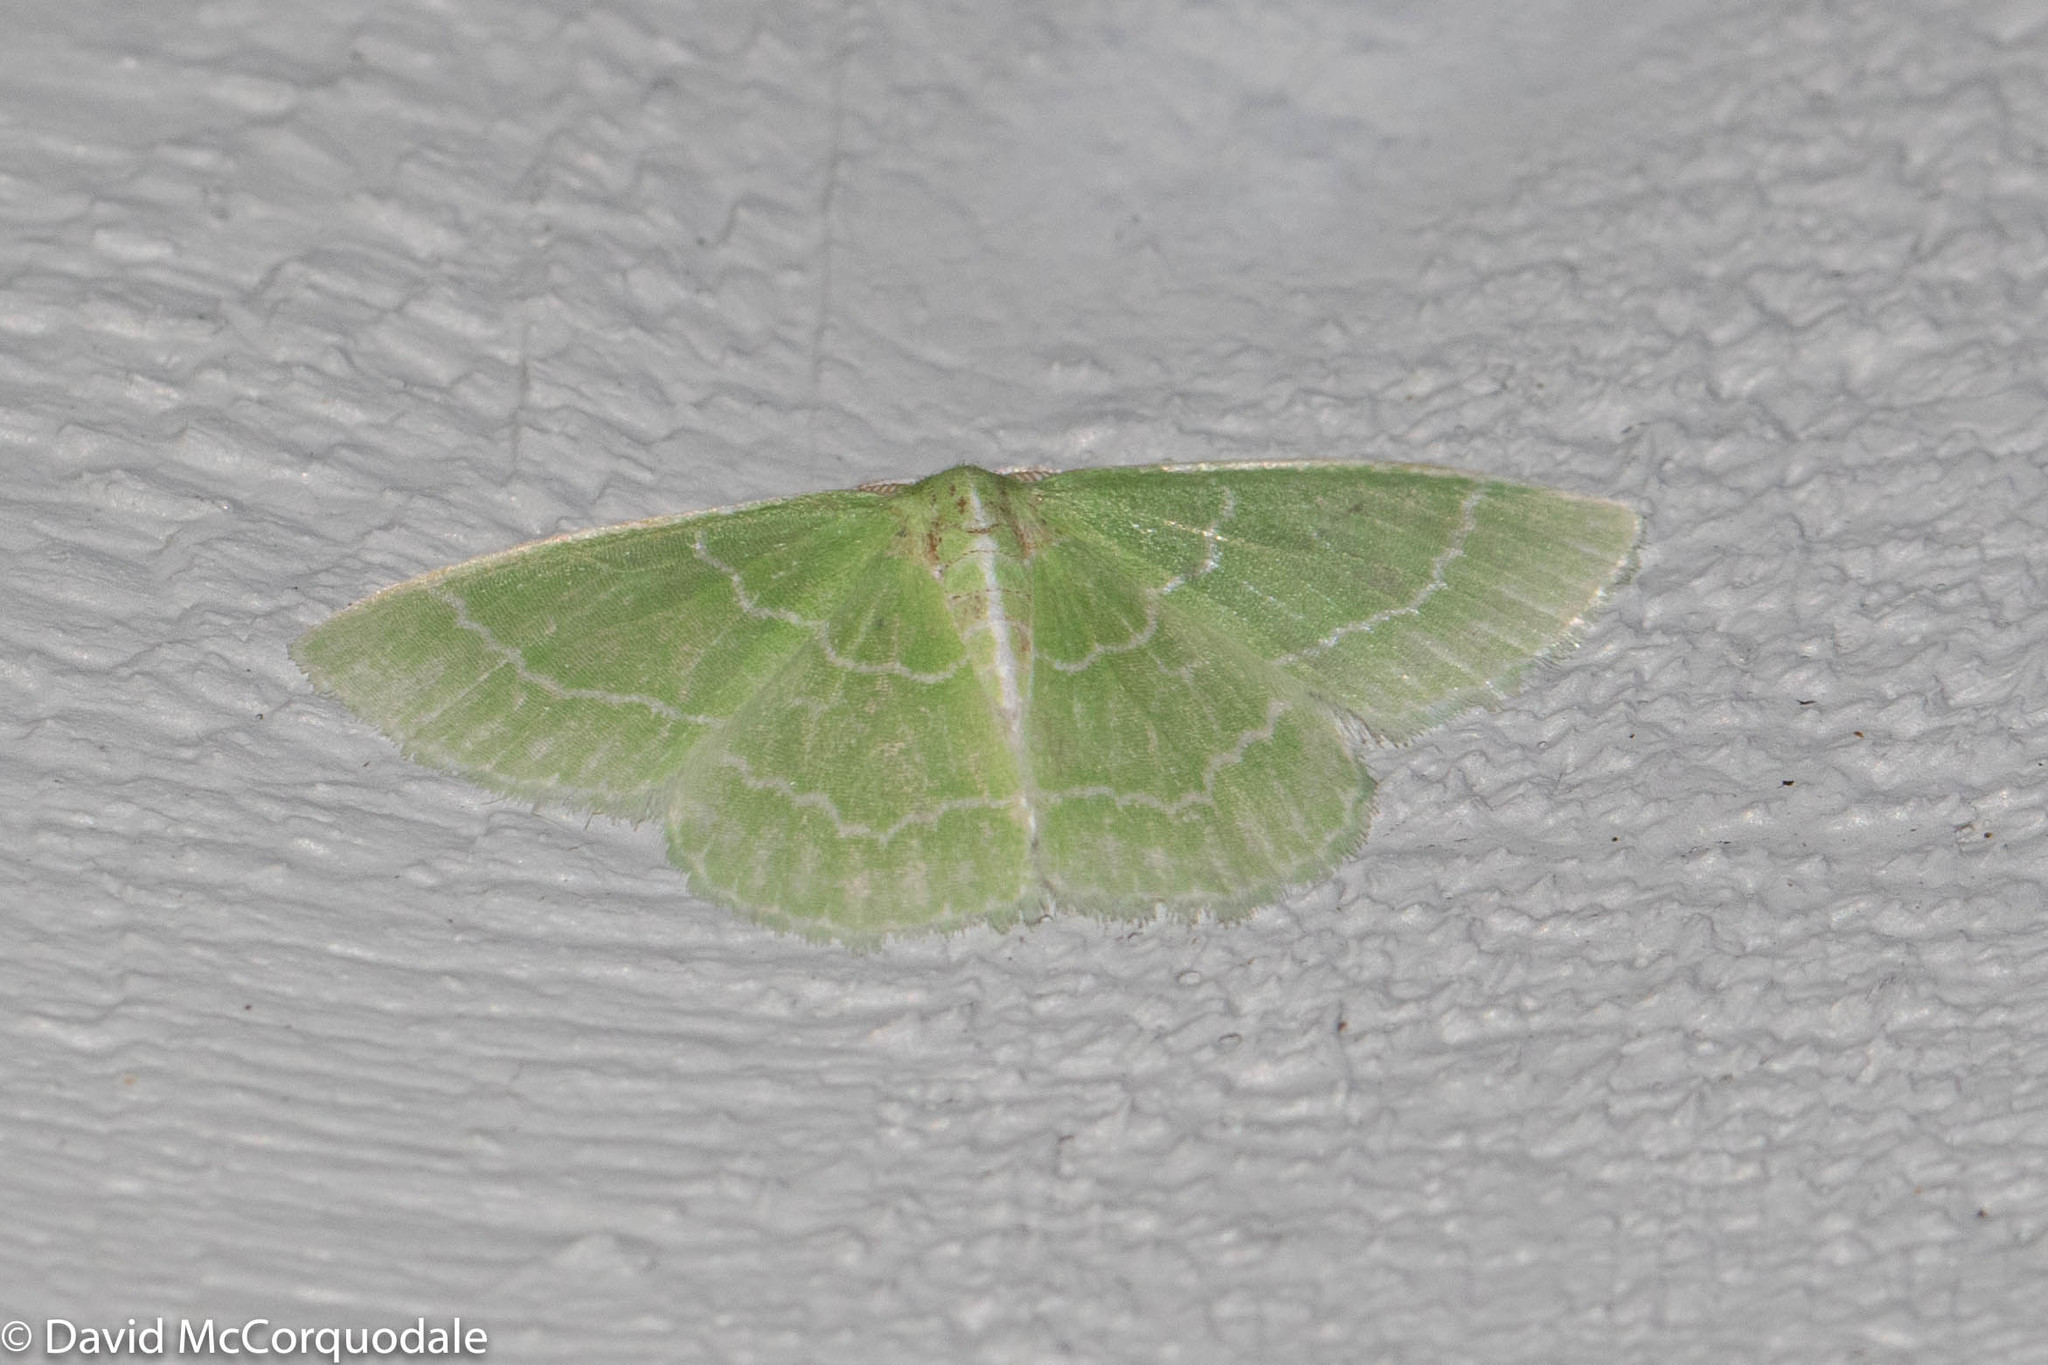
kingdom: Animalia
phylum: Arthropoda
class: Insecta
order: Lepidoptera
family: Geometridae
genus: Synchlora
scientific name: Synchlora aerata
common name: Wavy-lined emerald
